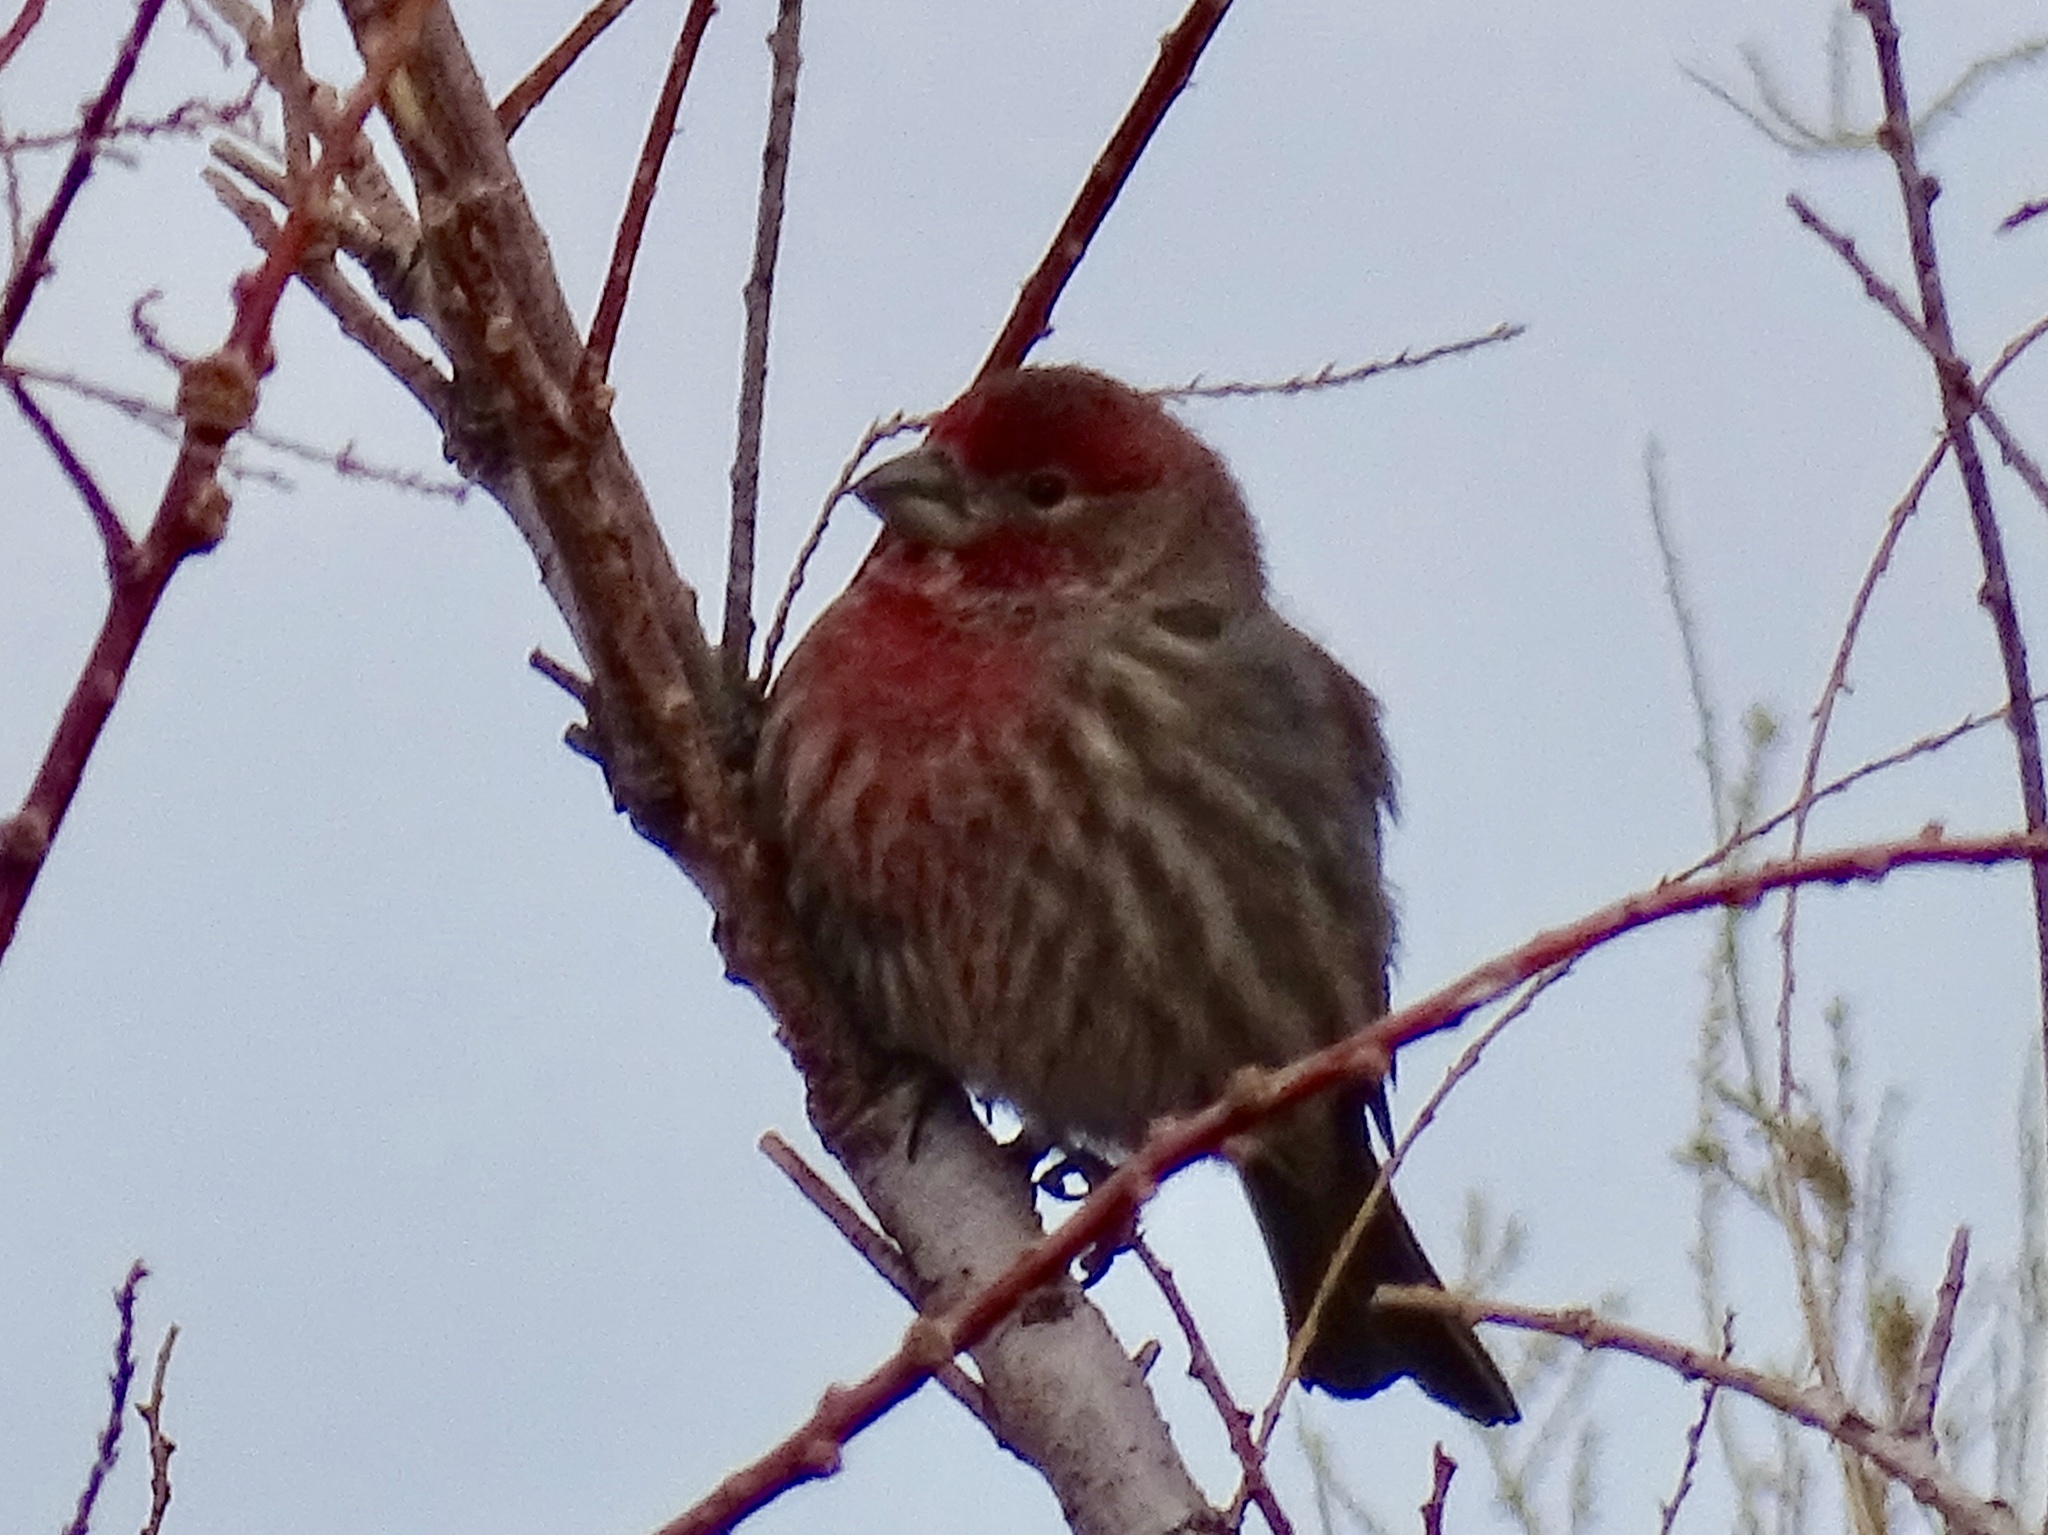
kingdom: Animalia
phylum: Chordata
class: Aves
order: Passeriformes
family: Fringillidae
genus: Haemorhous
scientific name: Haemorhous mexicanus
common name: House finch
